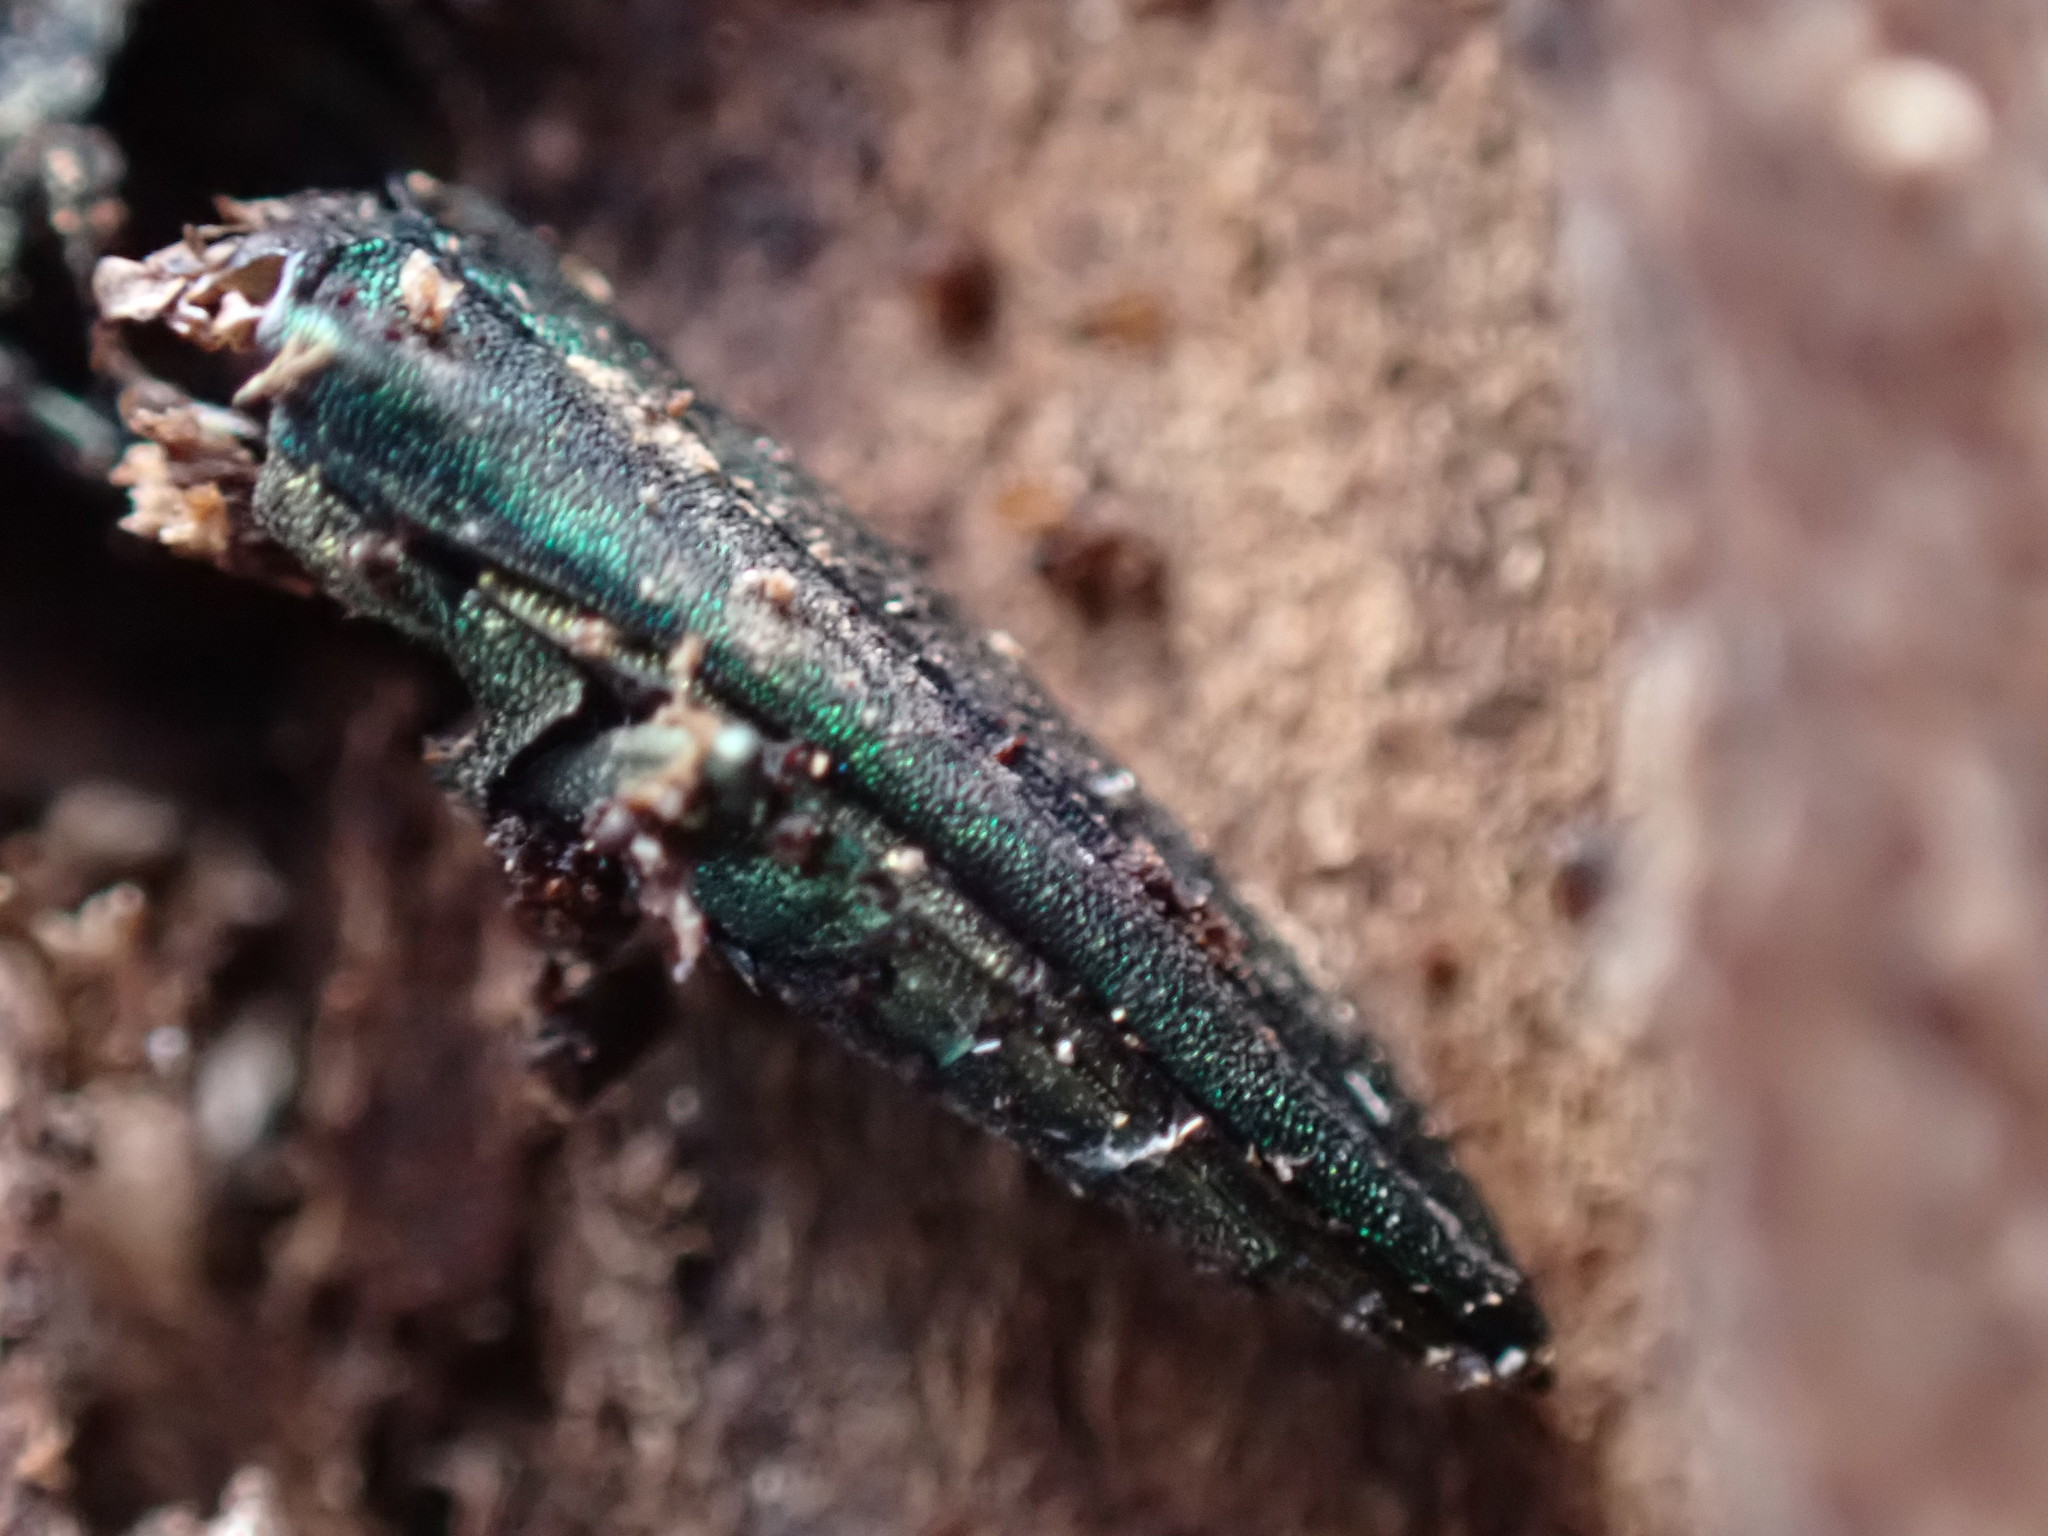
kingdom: Animalia
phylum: Arthropoda
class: Insecta
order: Coleoptera
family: Buprestidae
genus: Agrilus
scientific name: Agrilus planipennis
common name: Emerald ash borer
